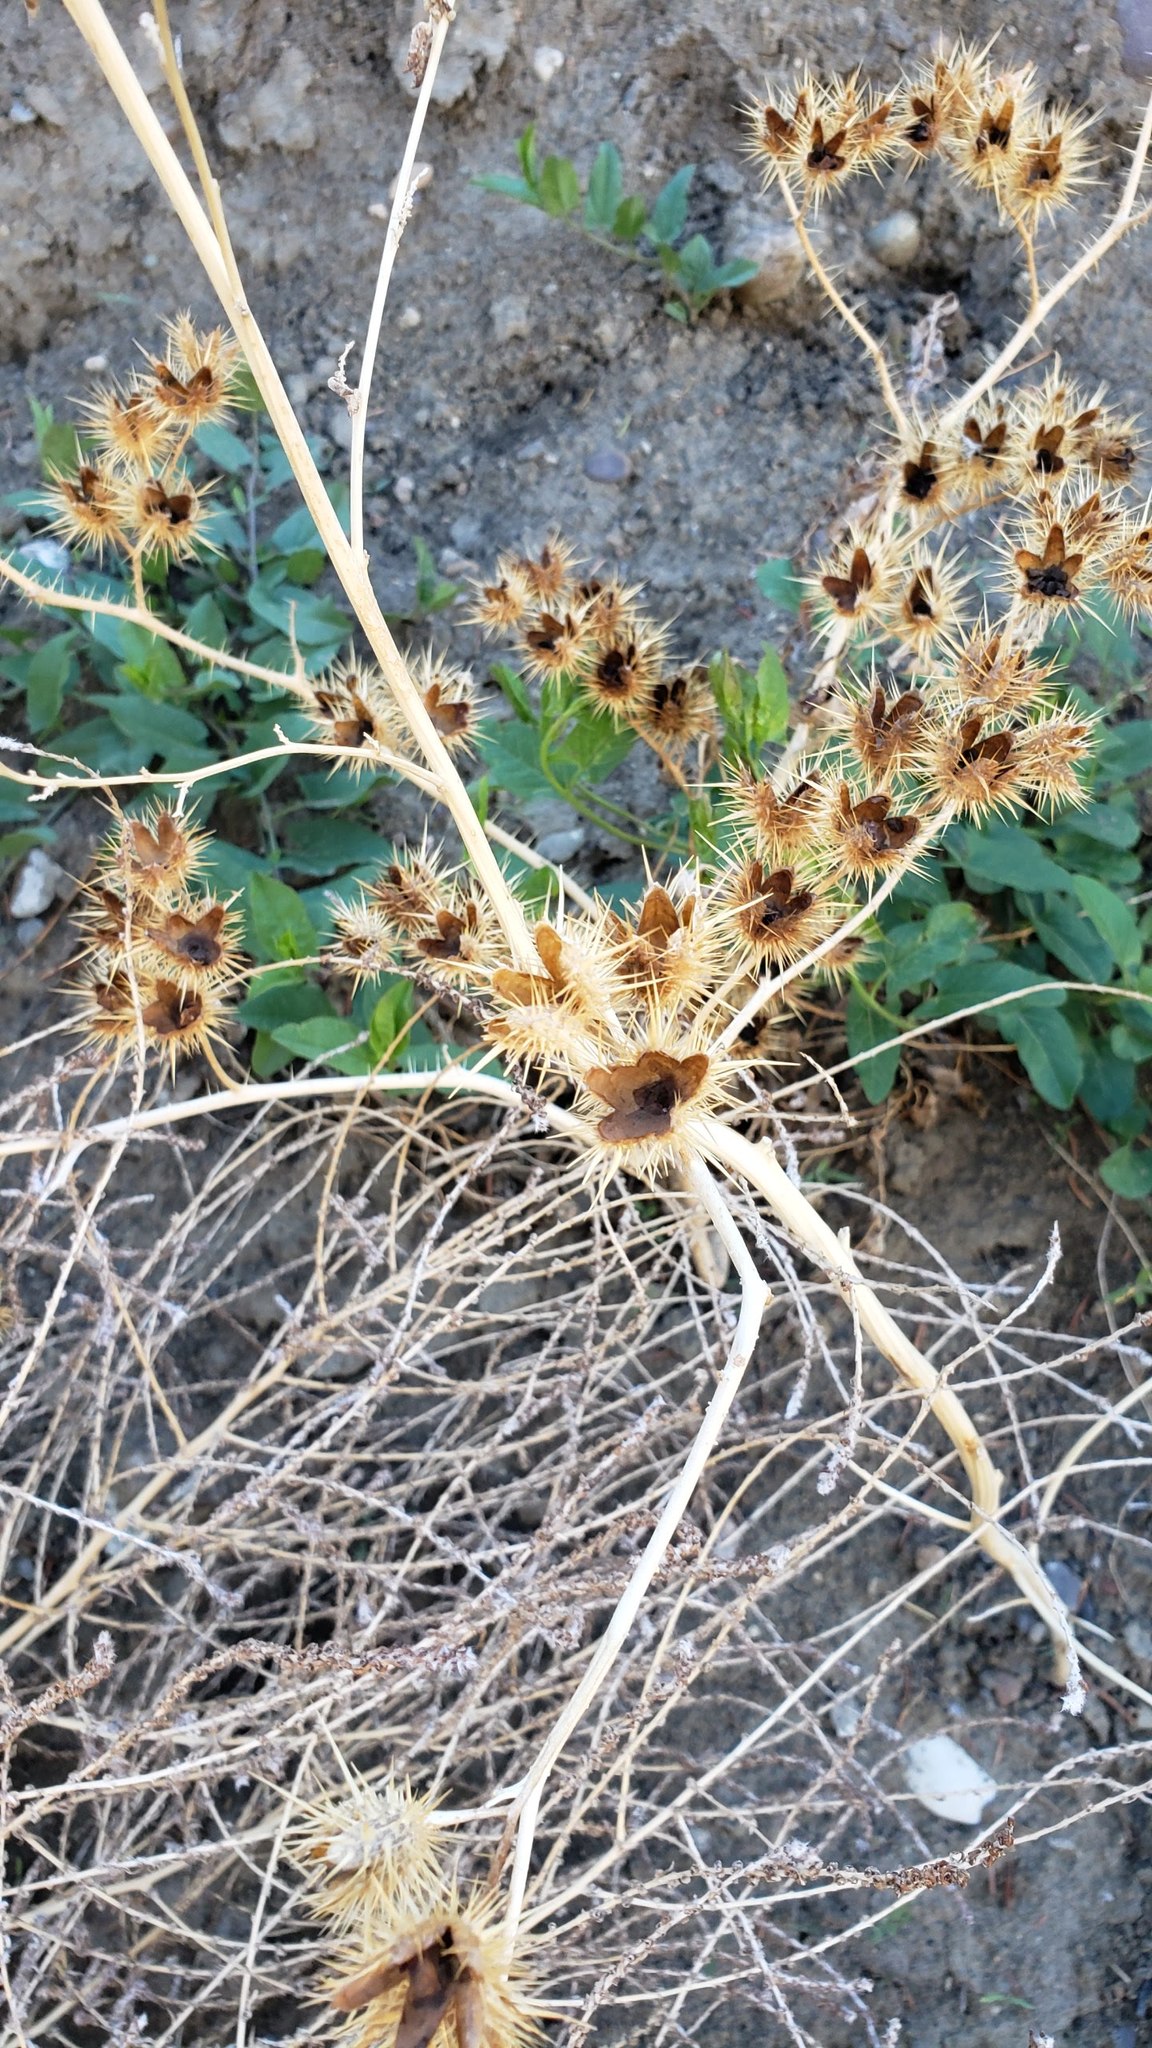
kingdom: Plantae
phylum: Tracheophyta
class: Magnoliopsida
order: Solanales
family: Solanaceae
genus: Solanum
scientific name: Solanum angustifolium
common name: Buffalobur nightshade
